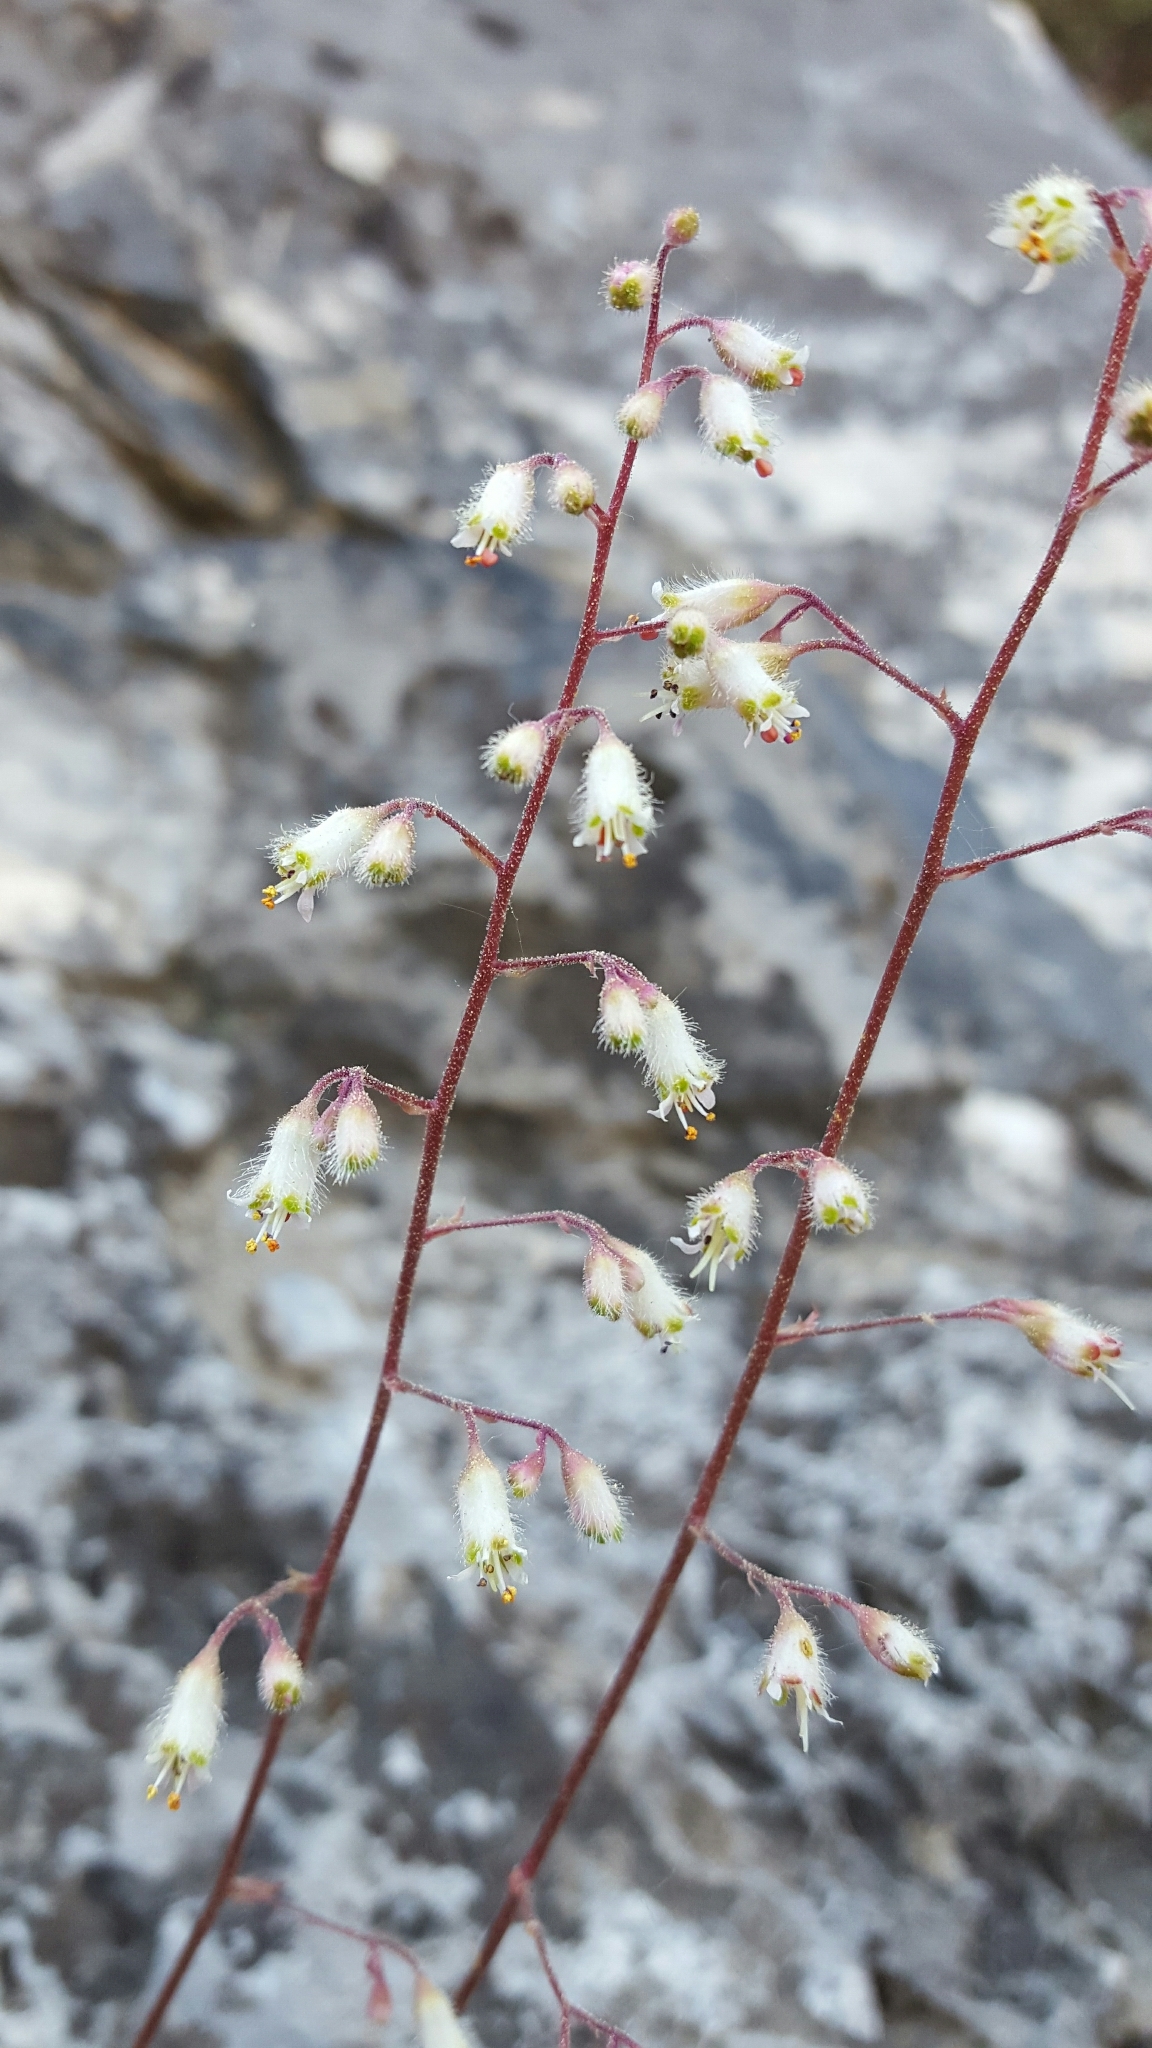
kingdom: Plantae
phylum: Tracheophyta
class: Magnoliopsida
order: Saxifragales
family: Saxifragaceae
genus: Heuchera
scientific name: Heuchera rubescens
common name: Jack-o'the-rocks
